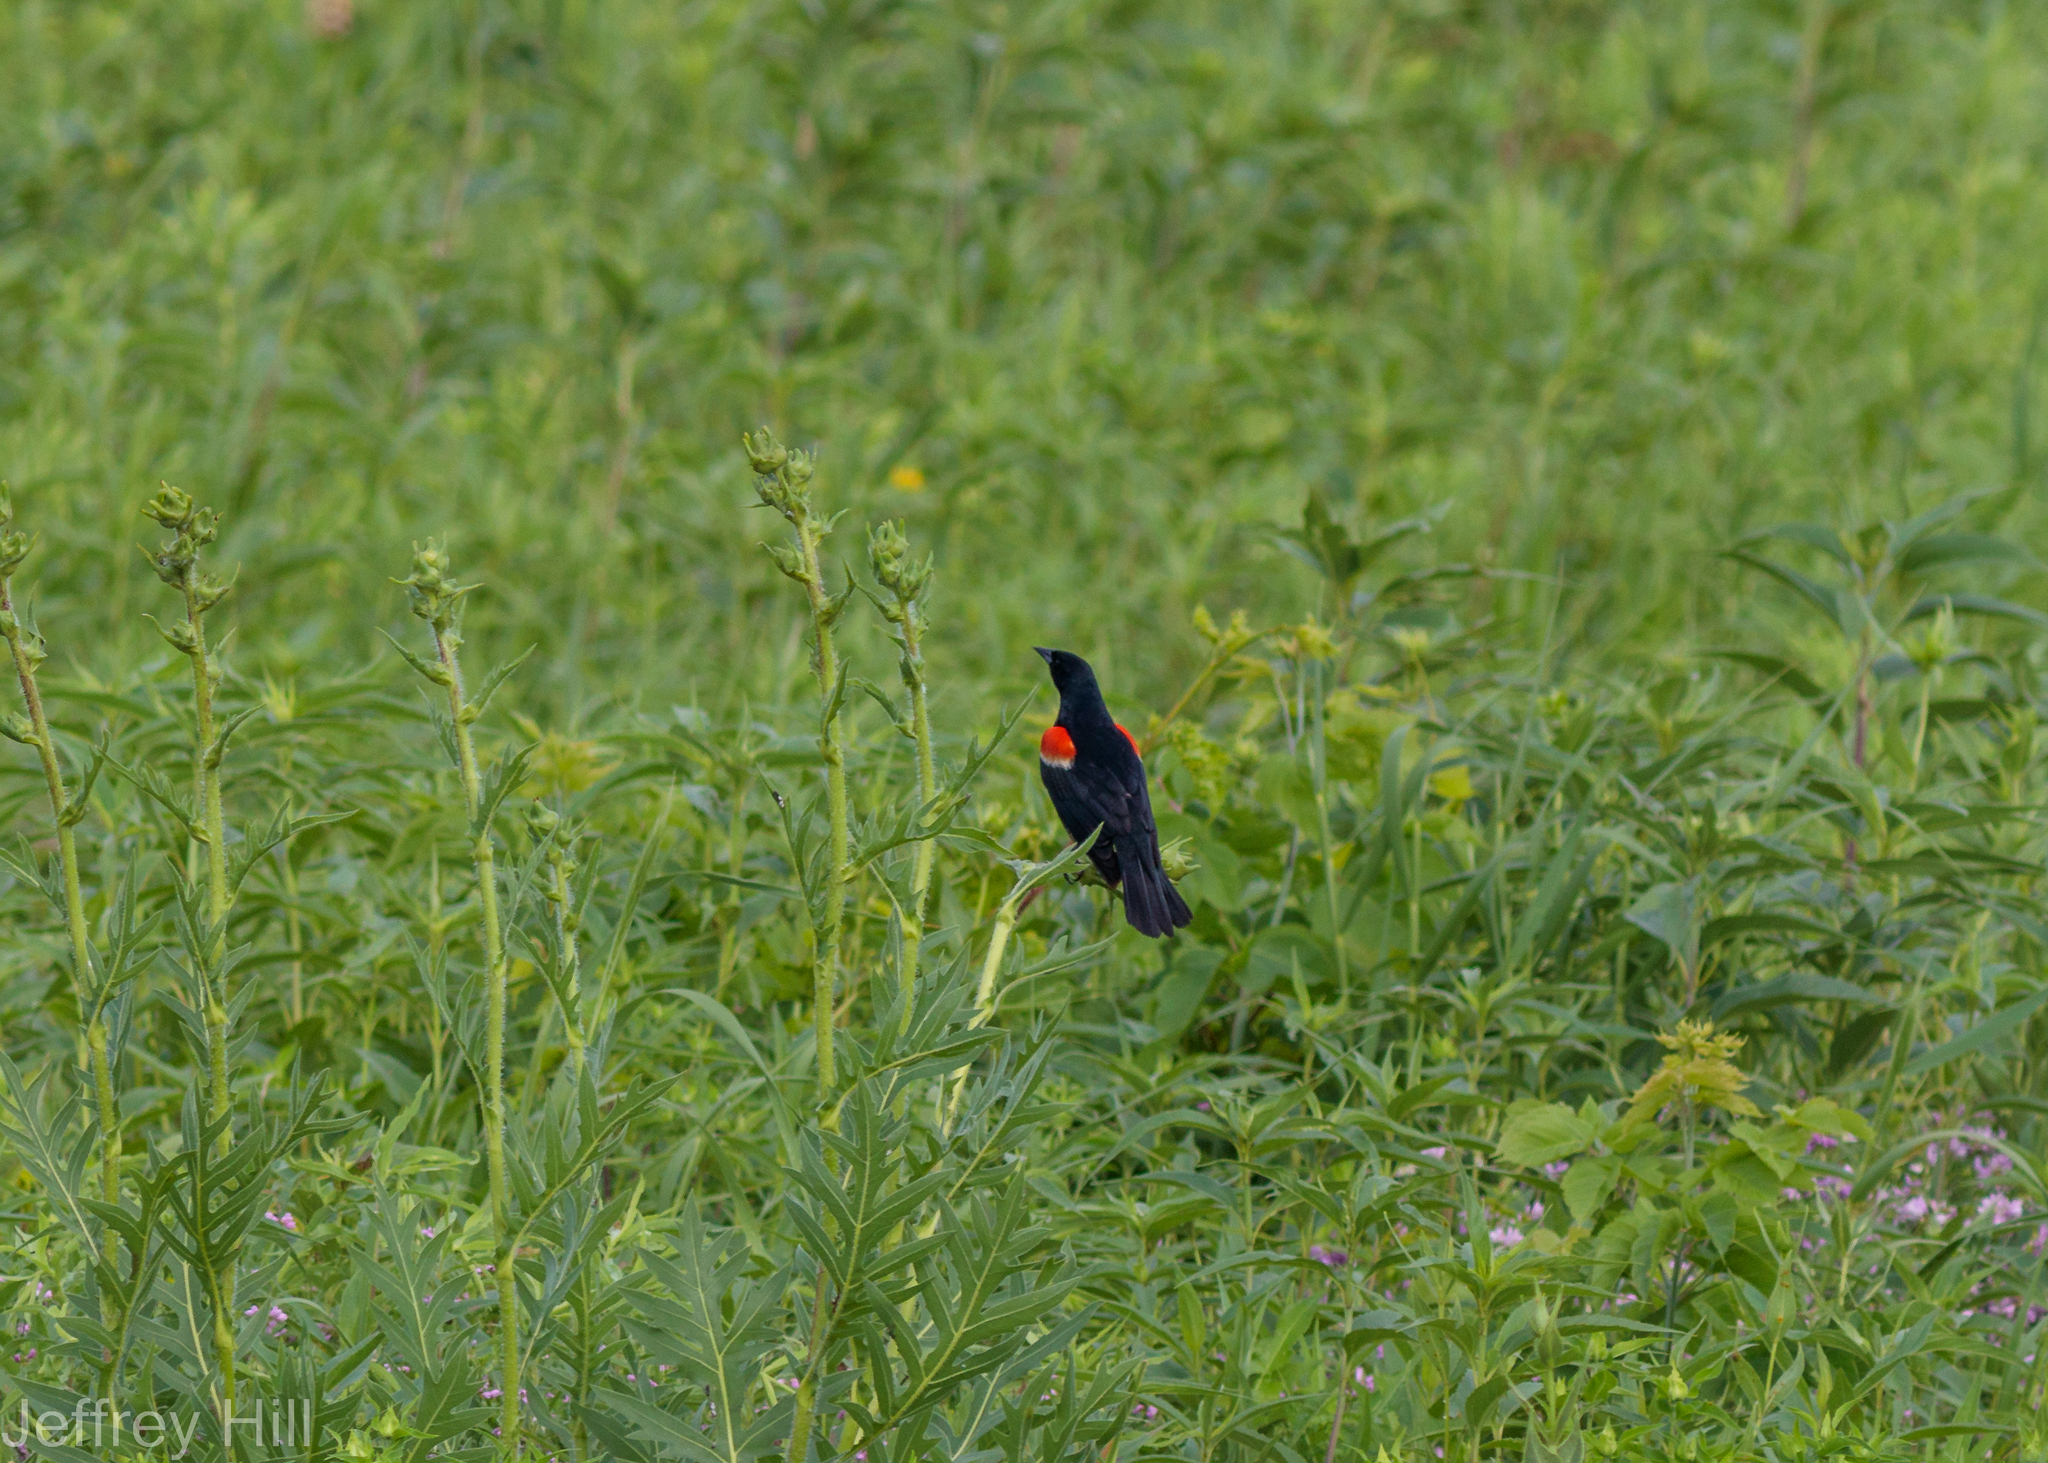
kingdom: Animalia
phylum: Chordata
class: Aves
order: Passeriformes
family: Icteridae
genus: Agelaius
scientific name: Agelaius phoeniceus
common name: Red-winged blackbird
